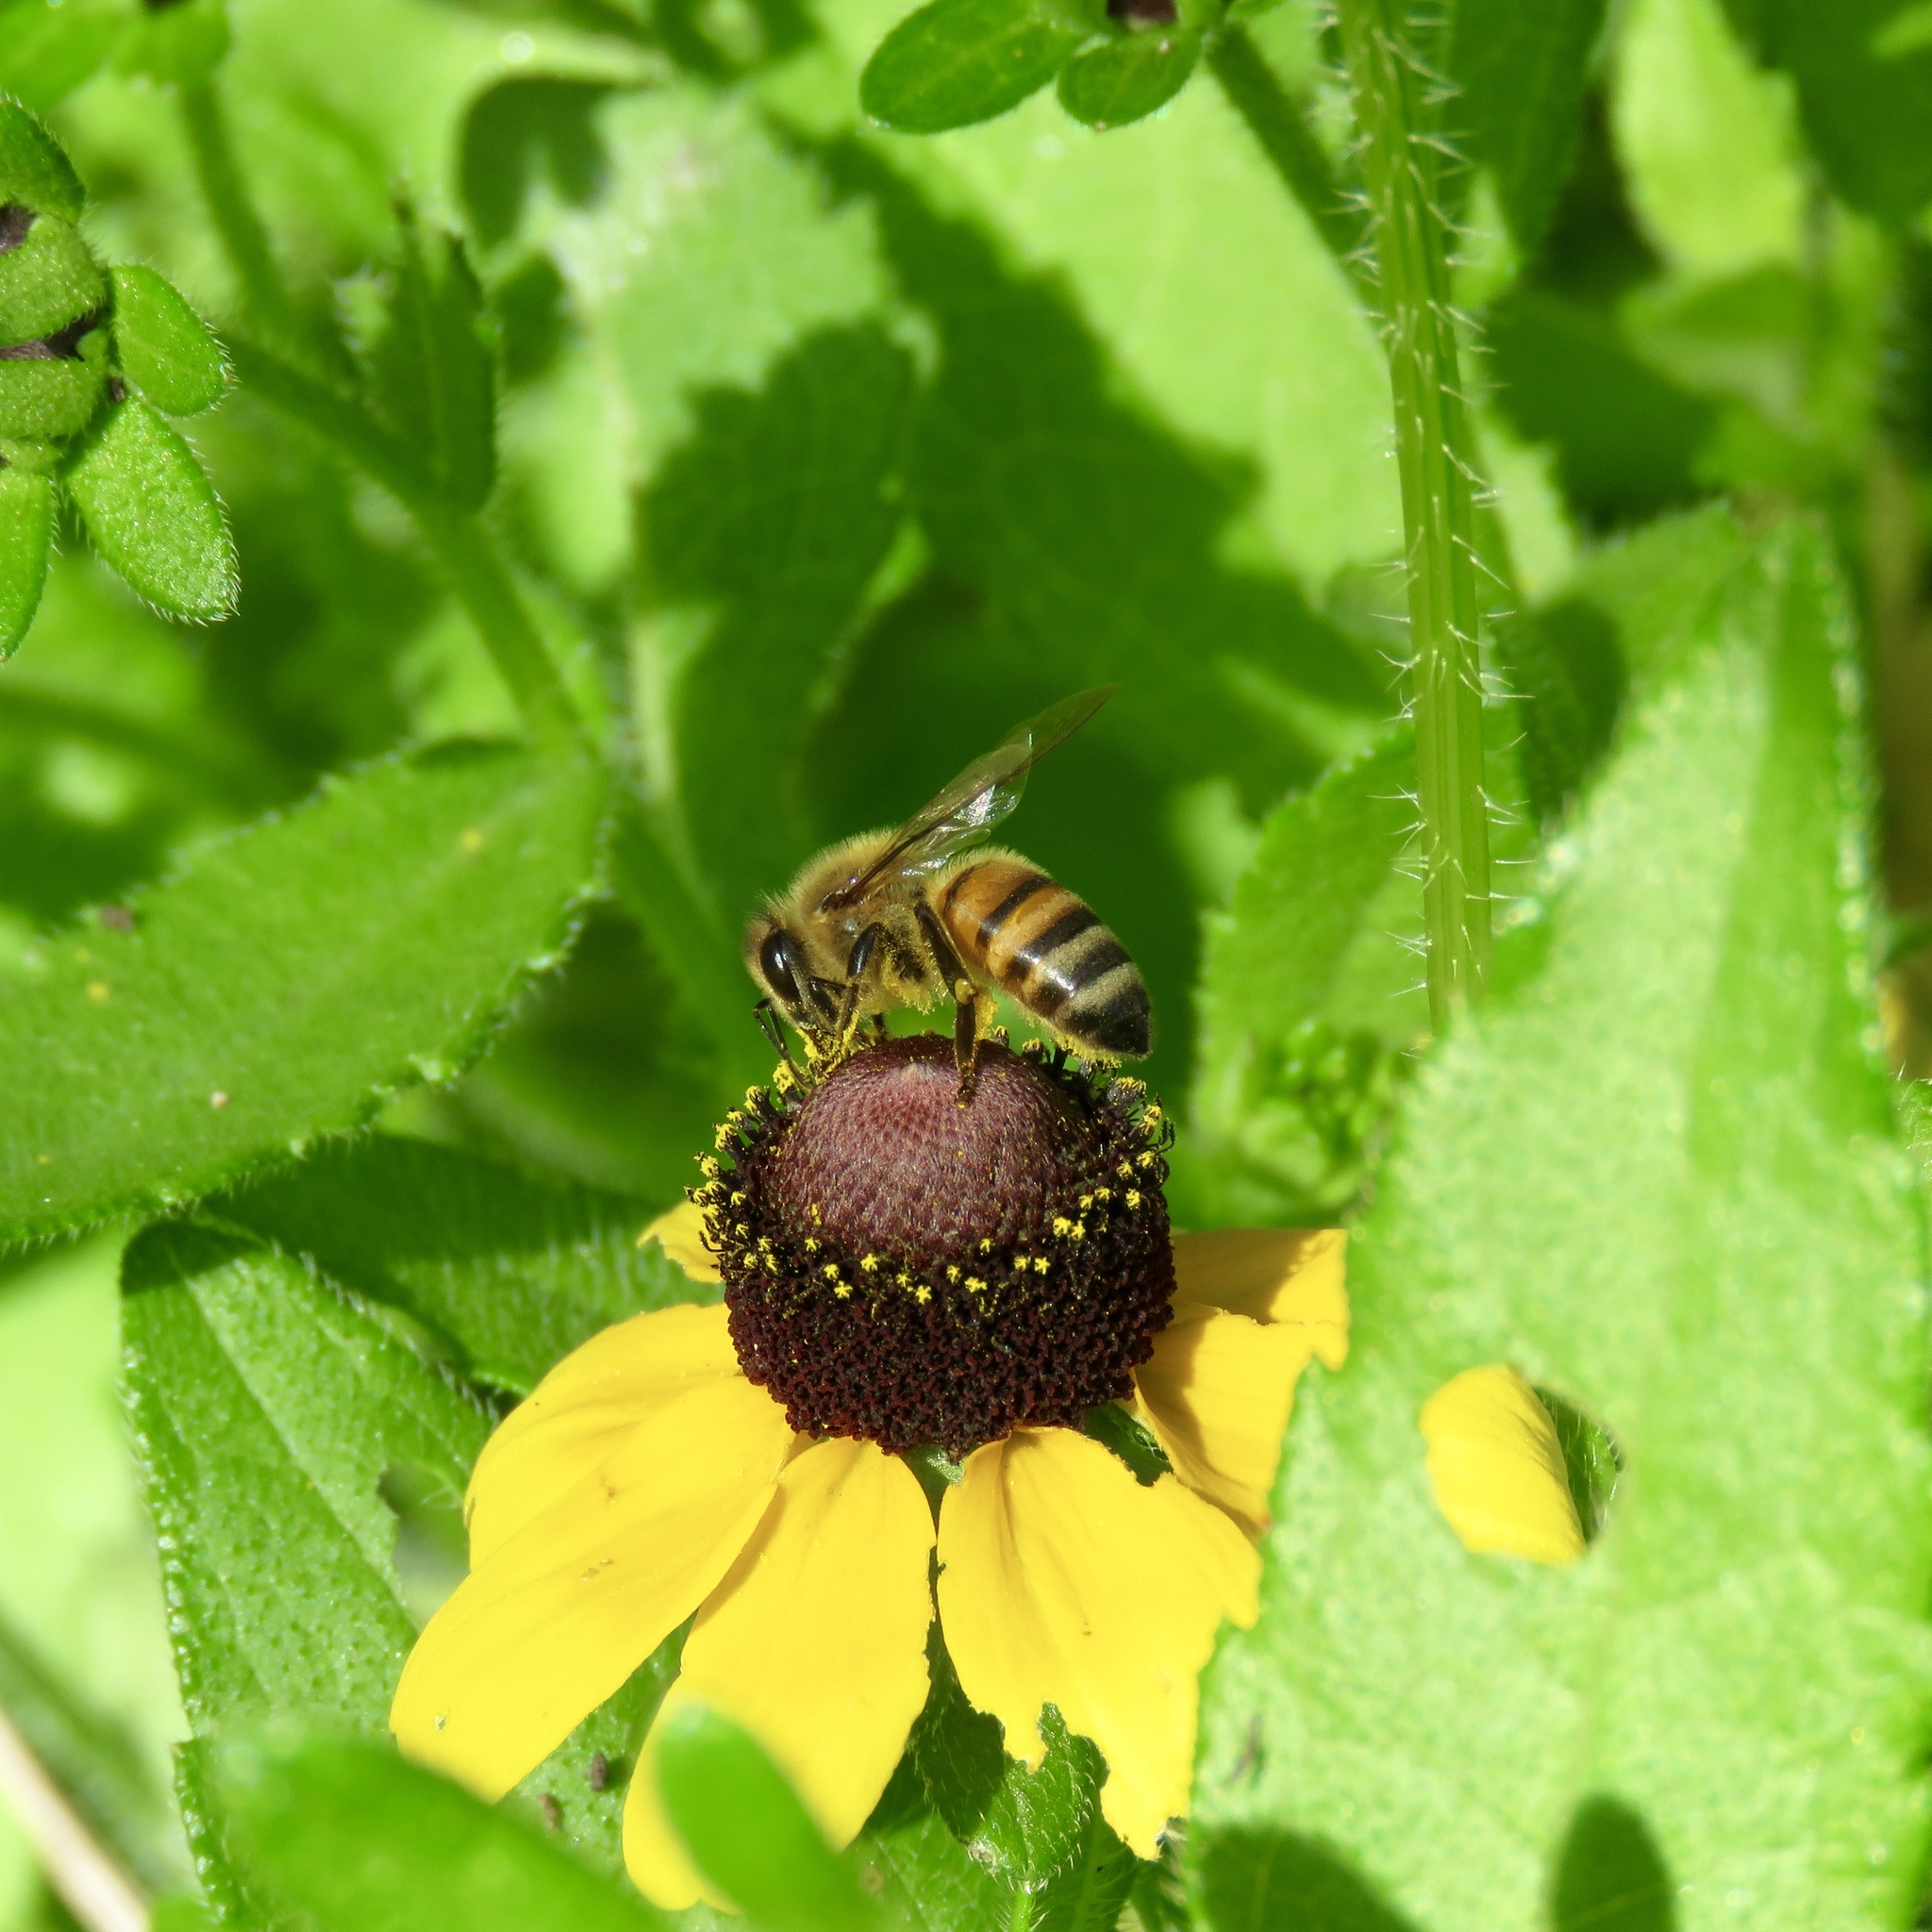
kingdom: Animalia
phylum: Arthropoda
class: Insecta
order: Hymenoptera
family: Apidae
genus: Apis
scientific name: Apis mellifera
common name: Honey bee
